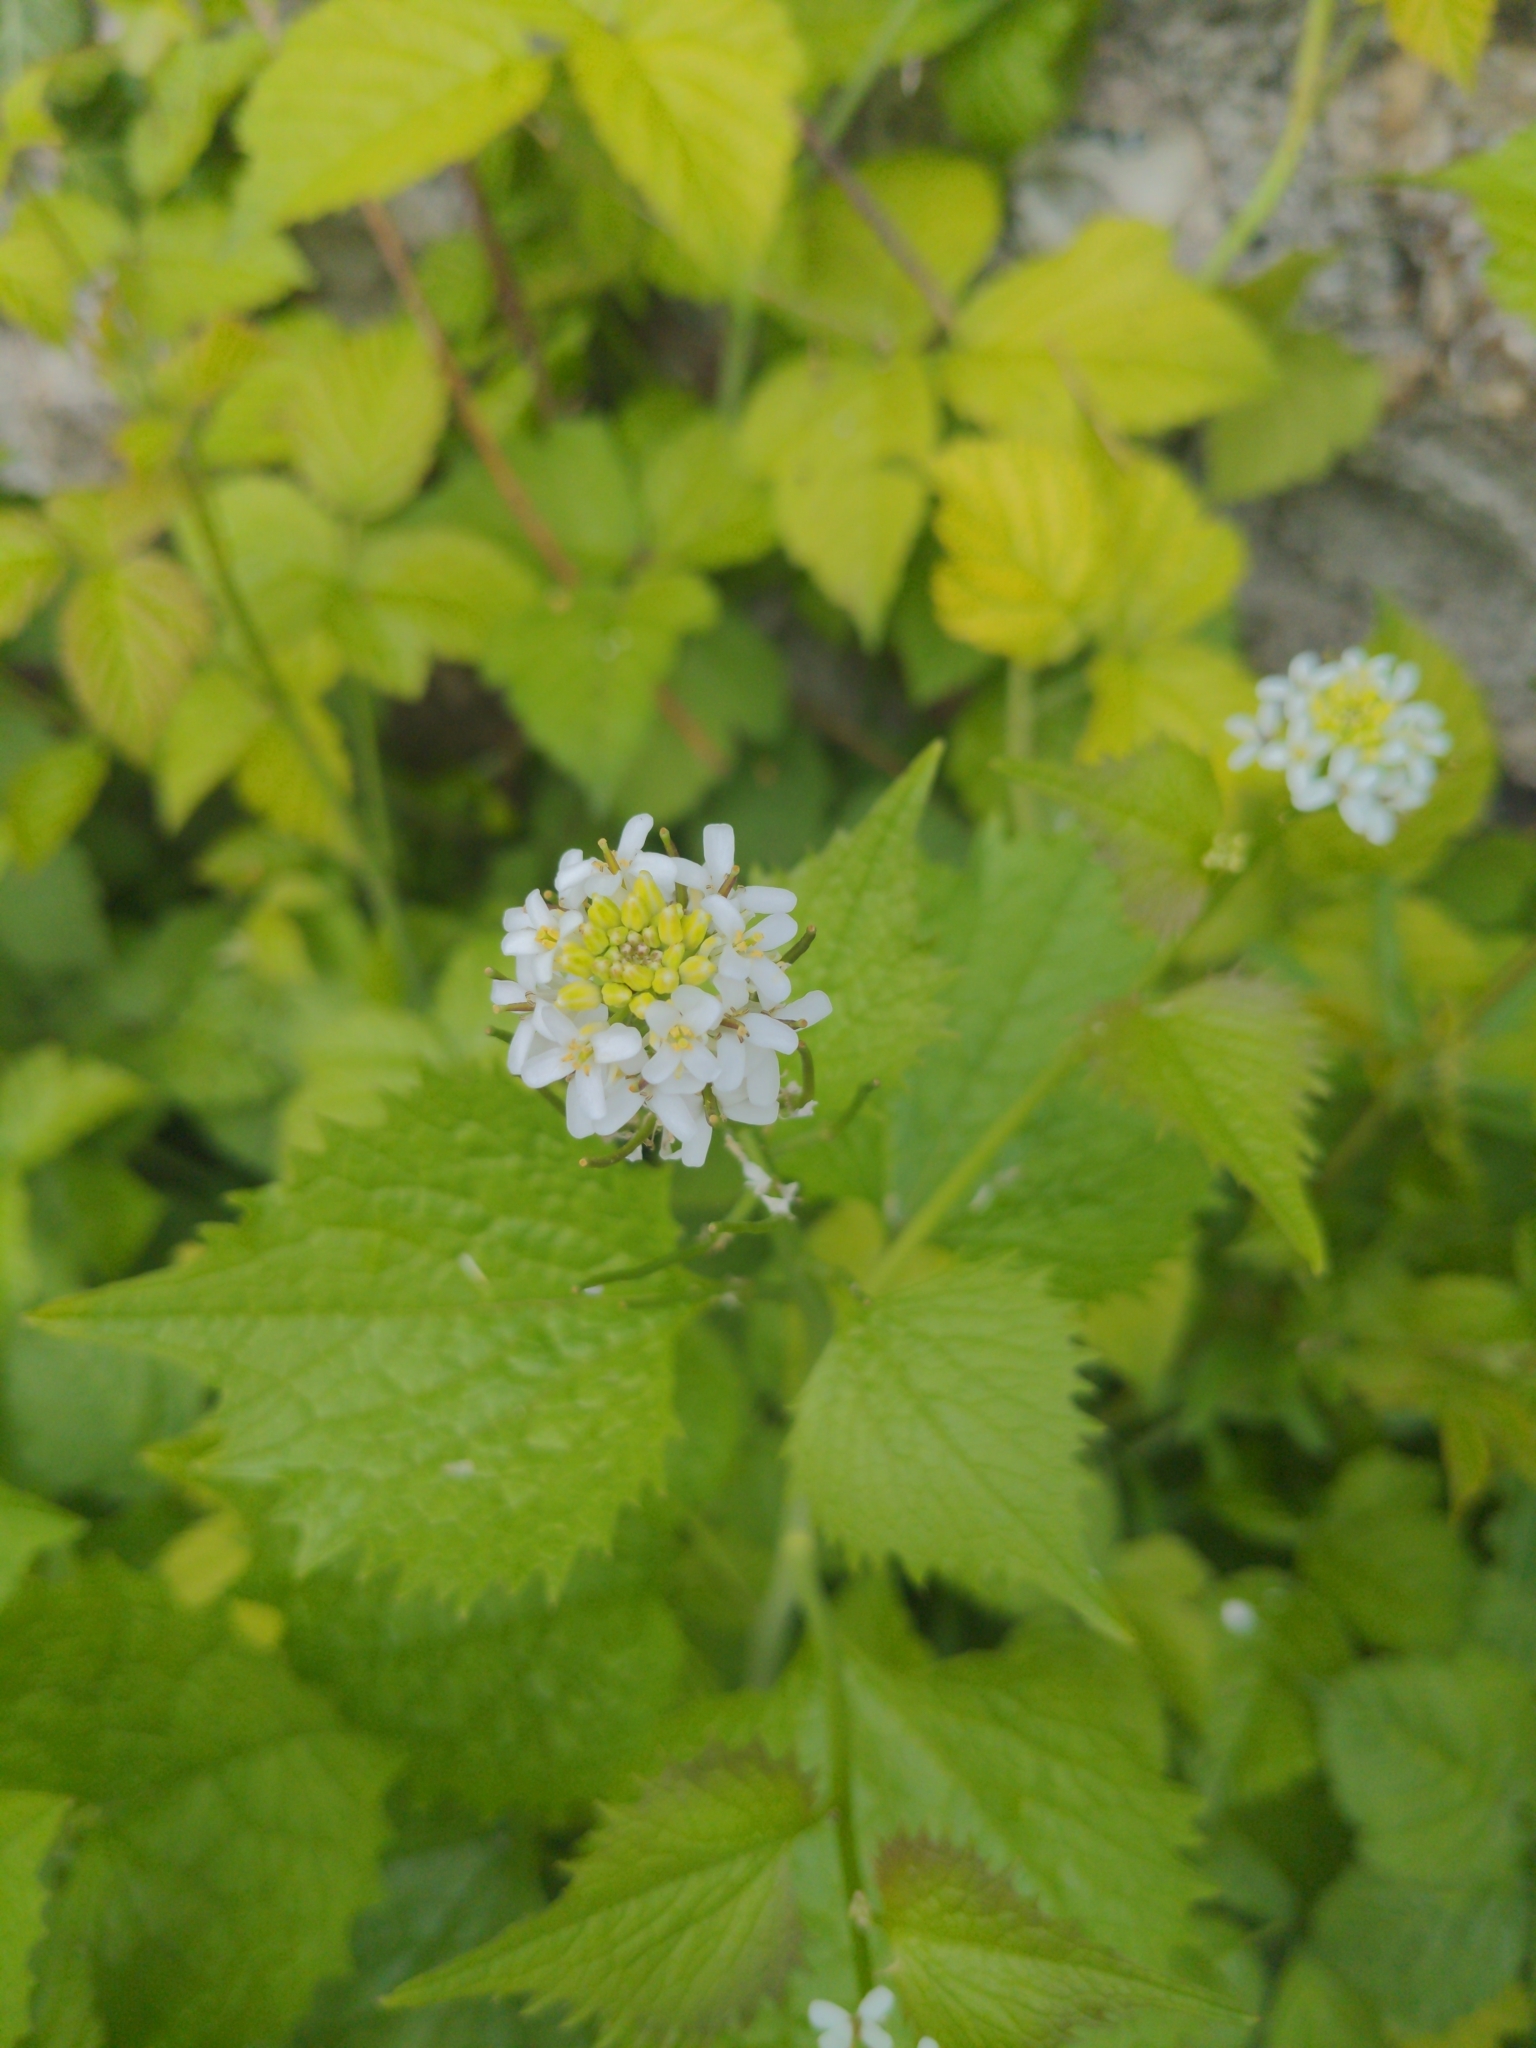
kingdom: Plantae
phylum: Tracheophyta
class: Magnoliopsida
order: Brassicales
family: Brassicaceae
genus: Alliaria
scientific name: Alliaria petiolata
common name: Garlic mustard
